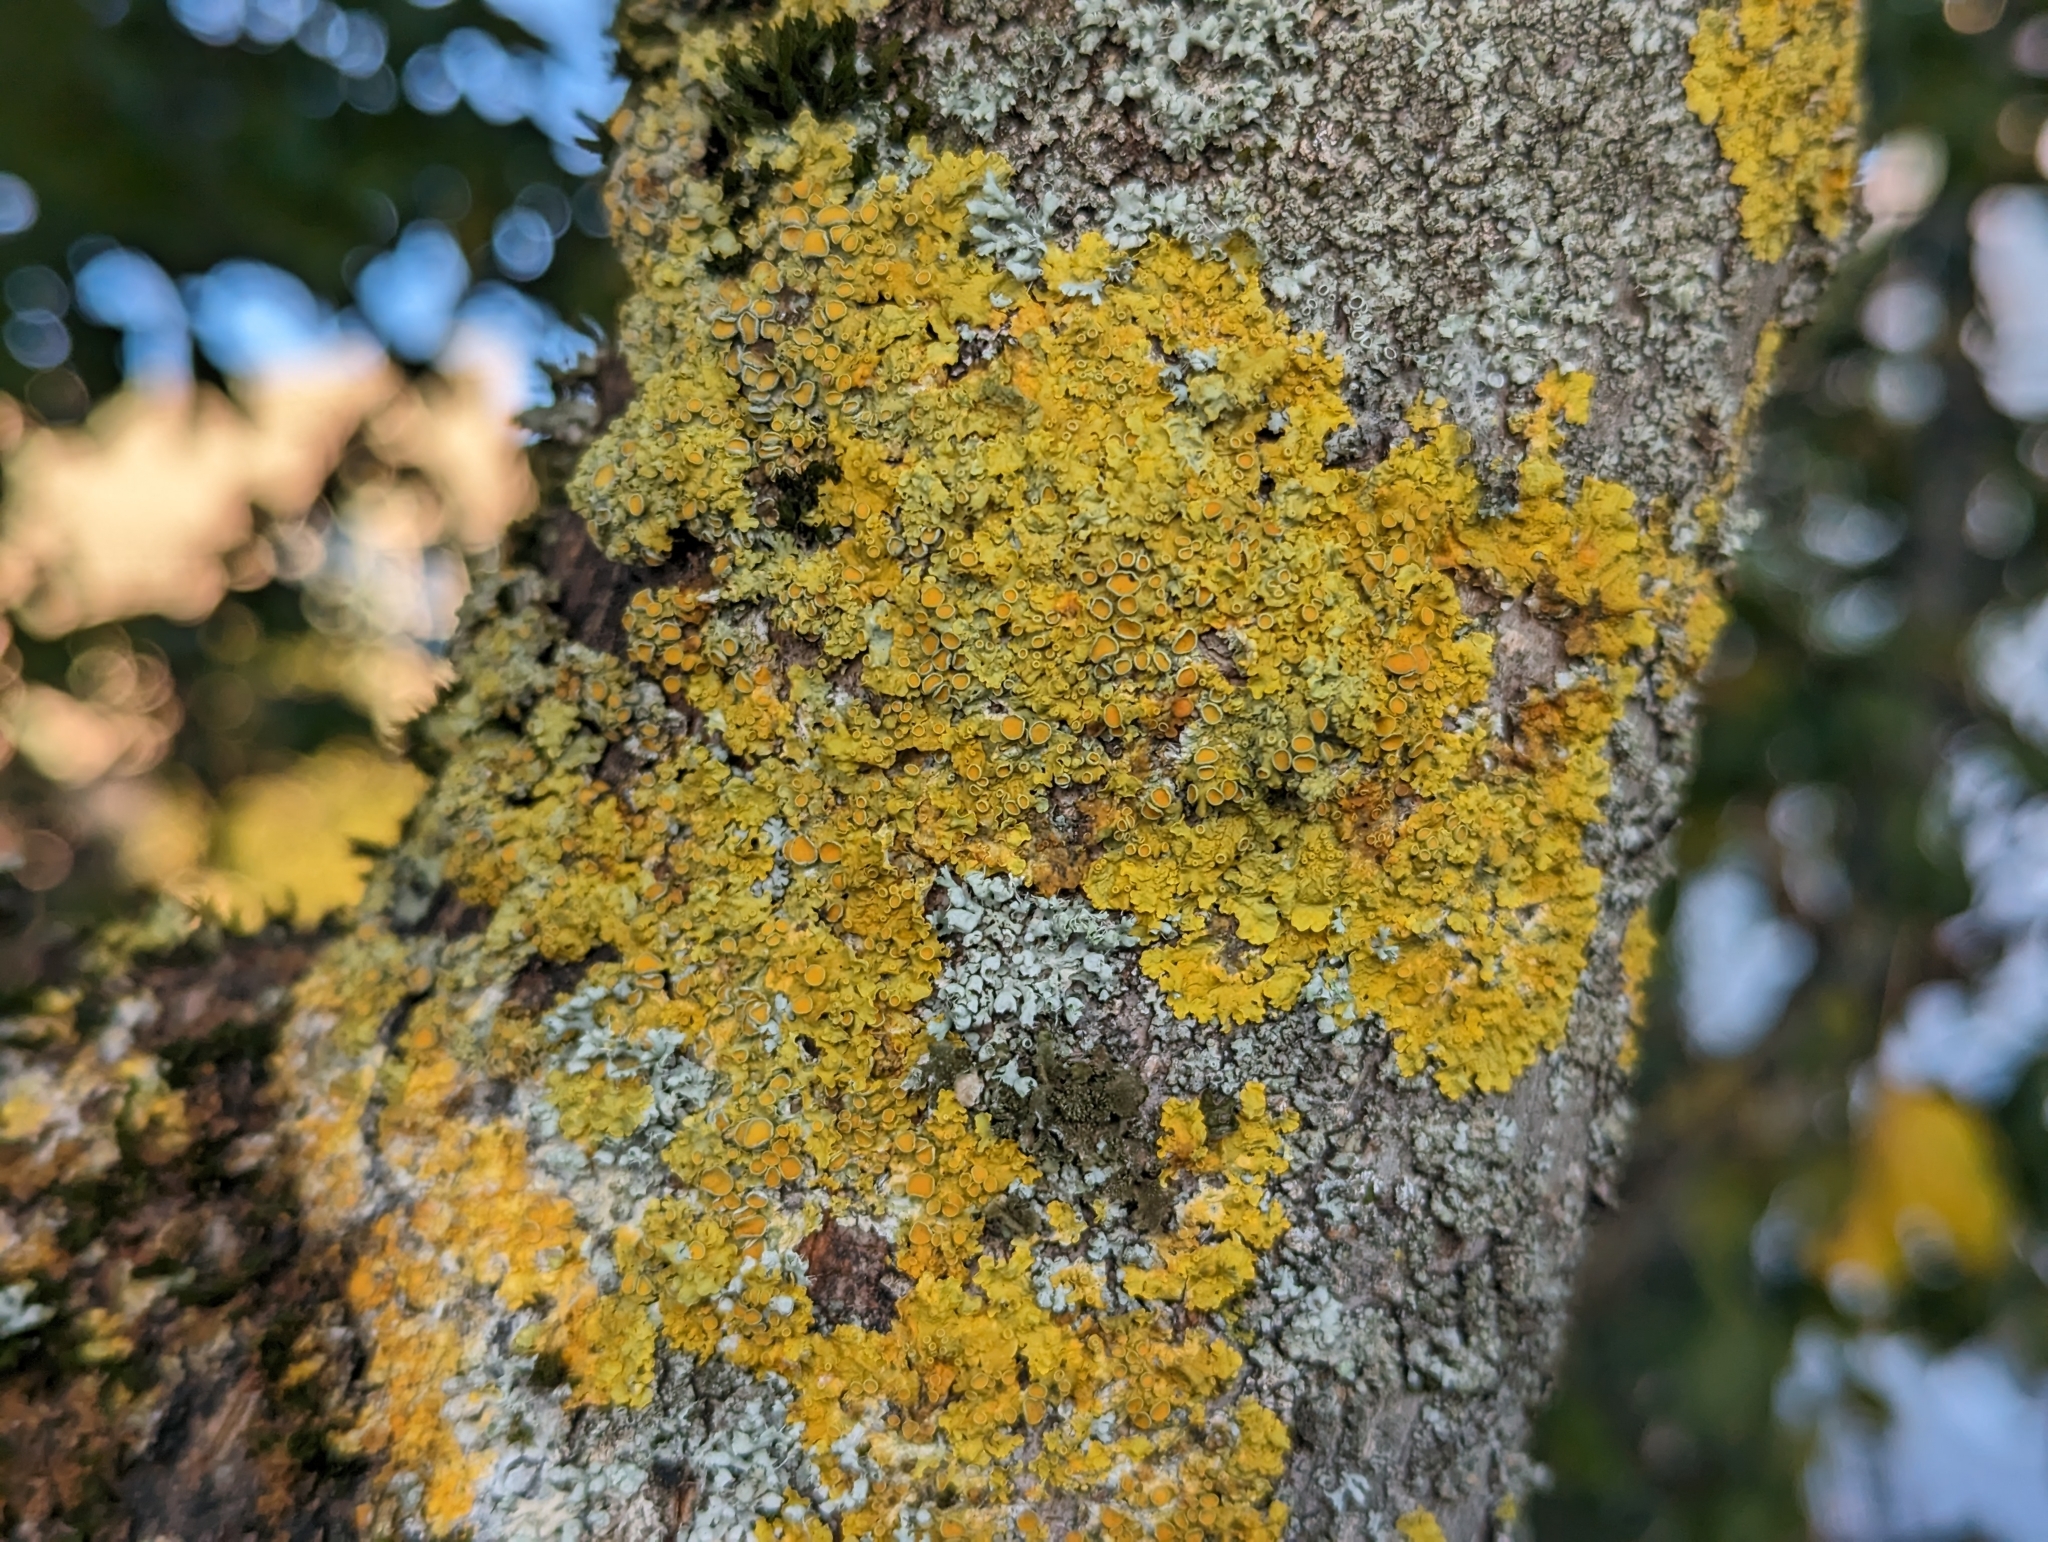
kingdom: Fungi
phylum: Ascomycota
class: Lecanoromycetes
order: Caliciales
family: Physciaceae
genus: Physcia
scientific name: Physcia adscendens
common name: Hooded rosette lichen
